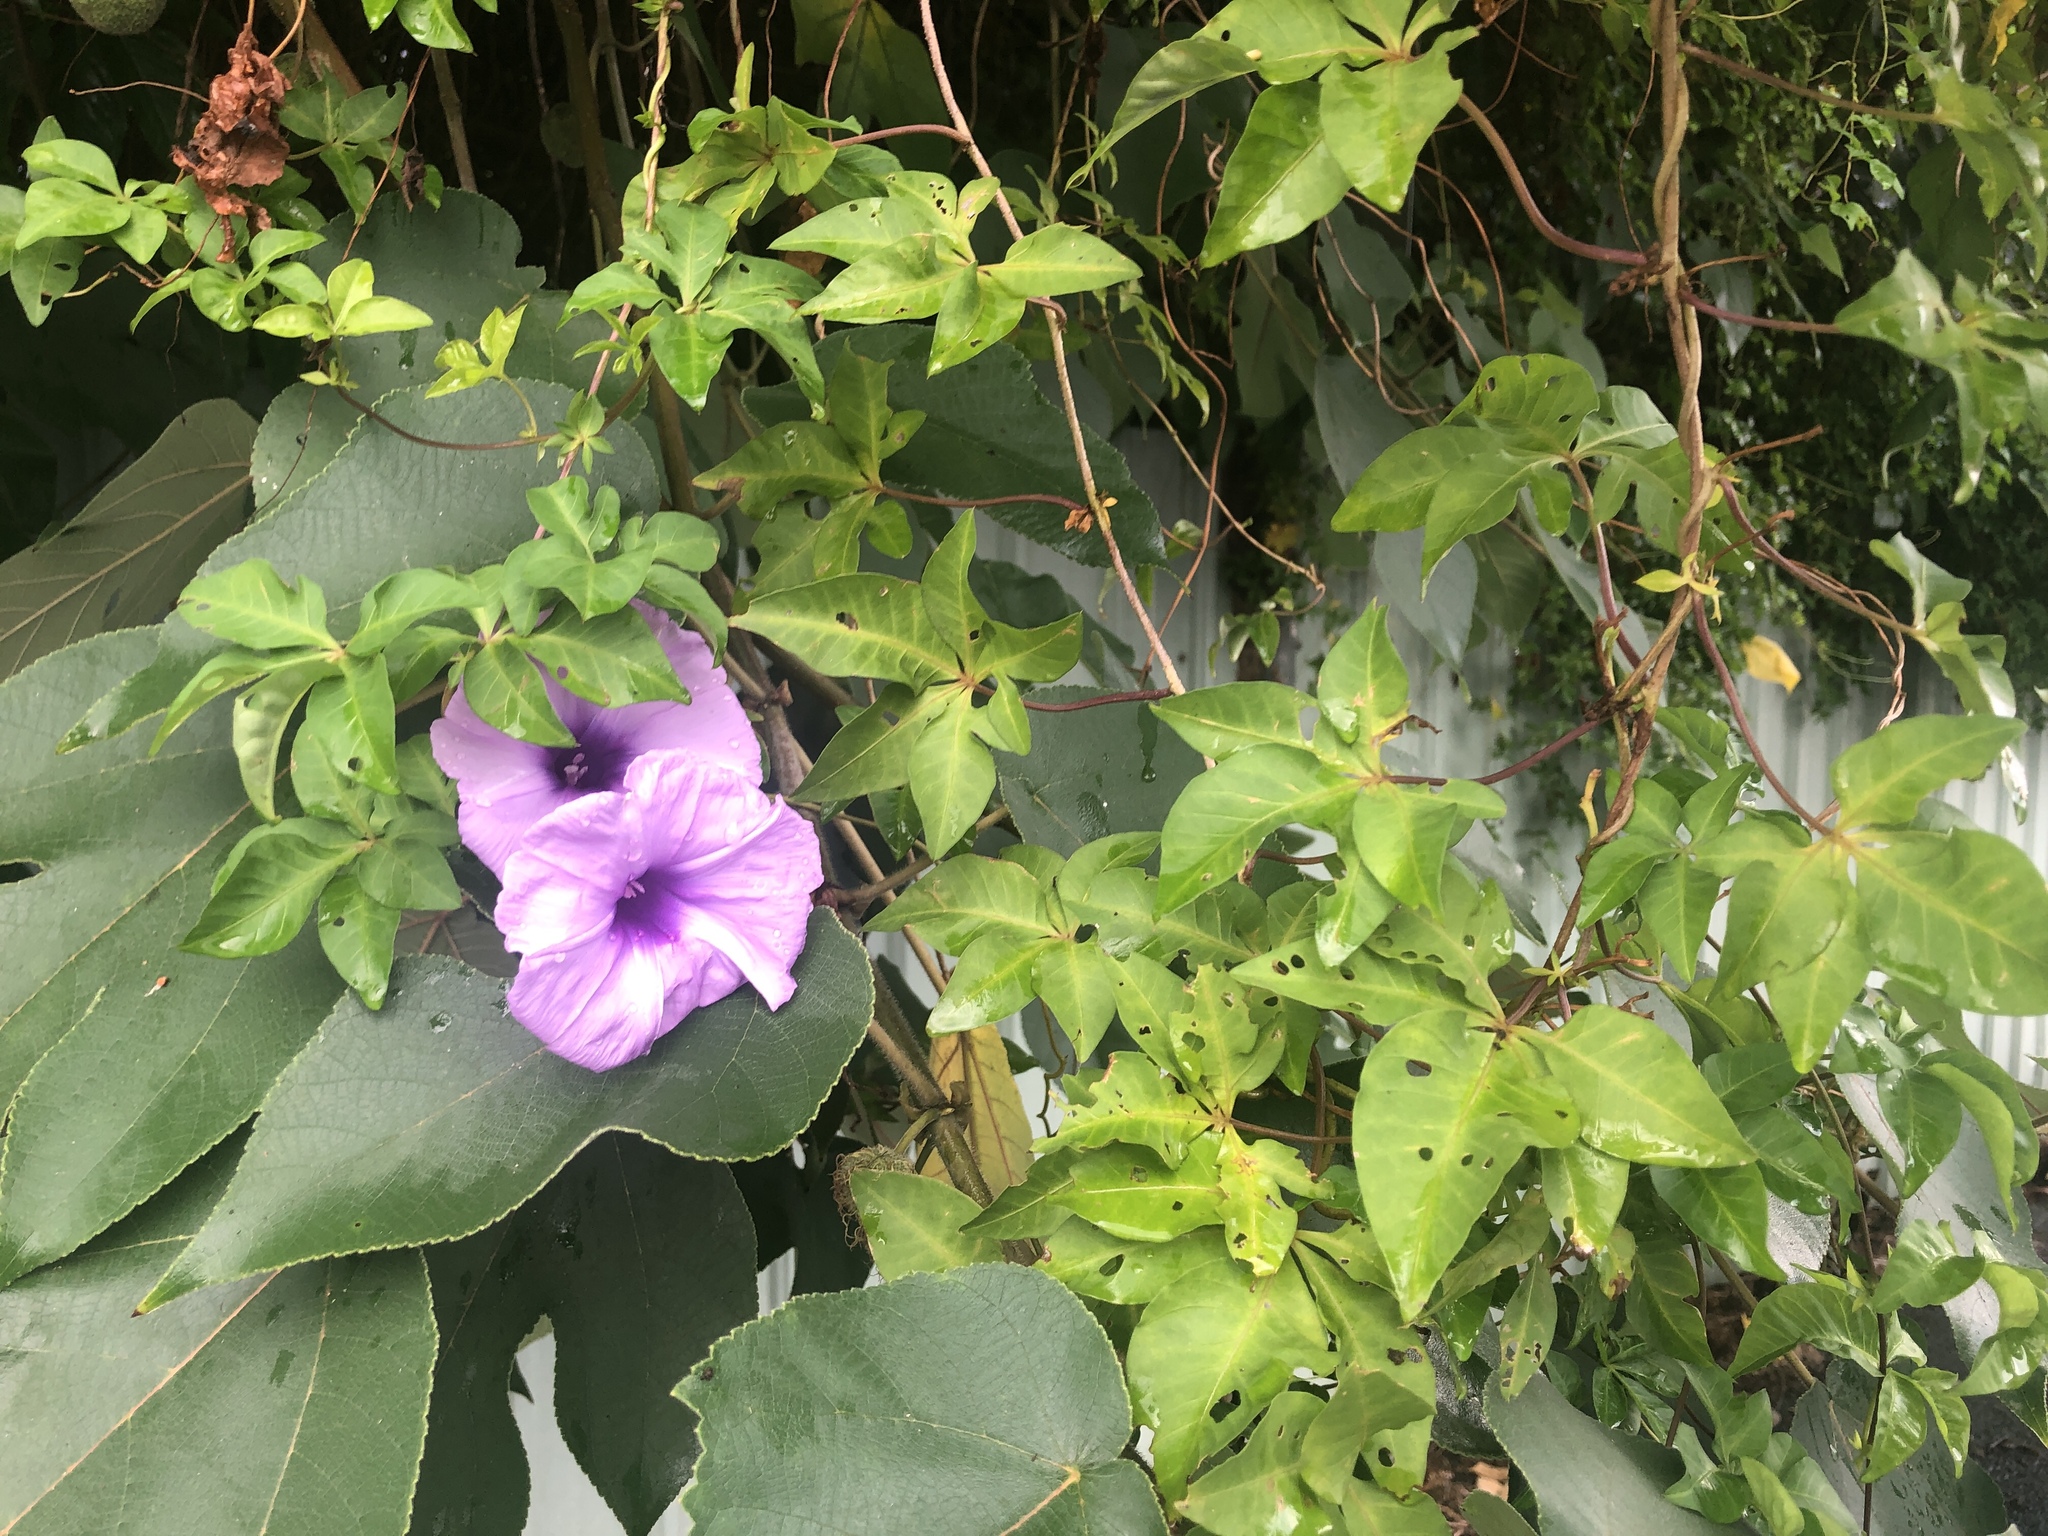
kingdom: Plantae
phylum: Tracheophyta
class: Magnoliopsida
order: Solanales
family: Convolvulaceae
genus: Ipomoea
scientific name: Ipomoea cairica
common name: Mile a minute vine
